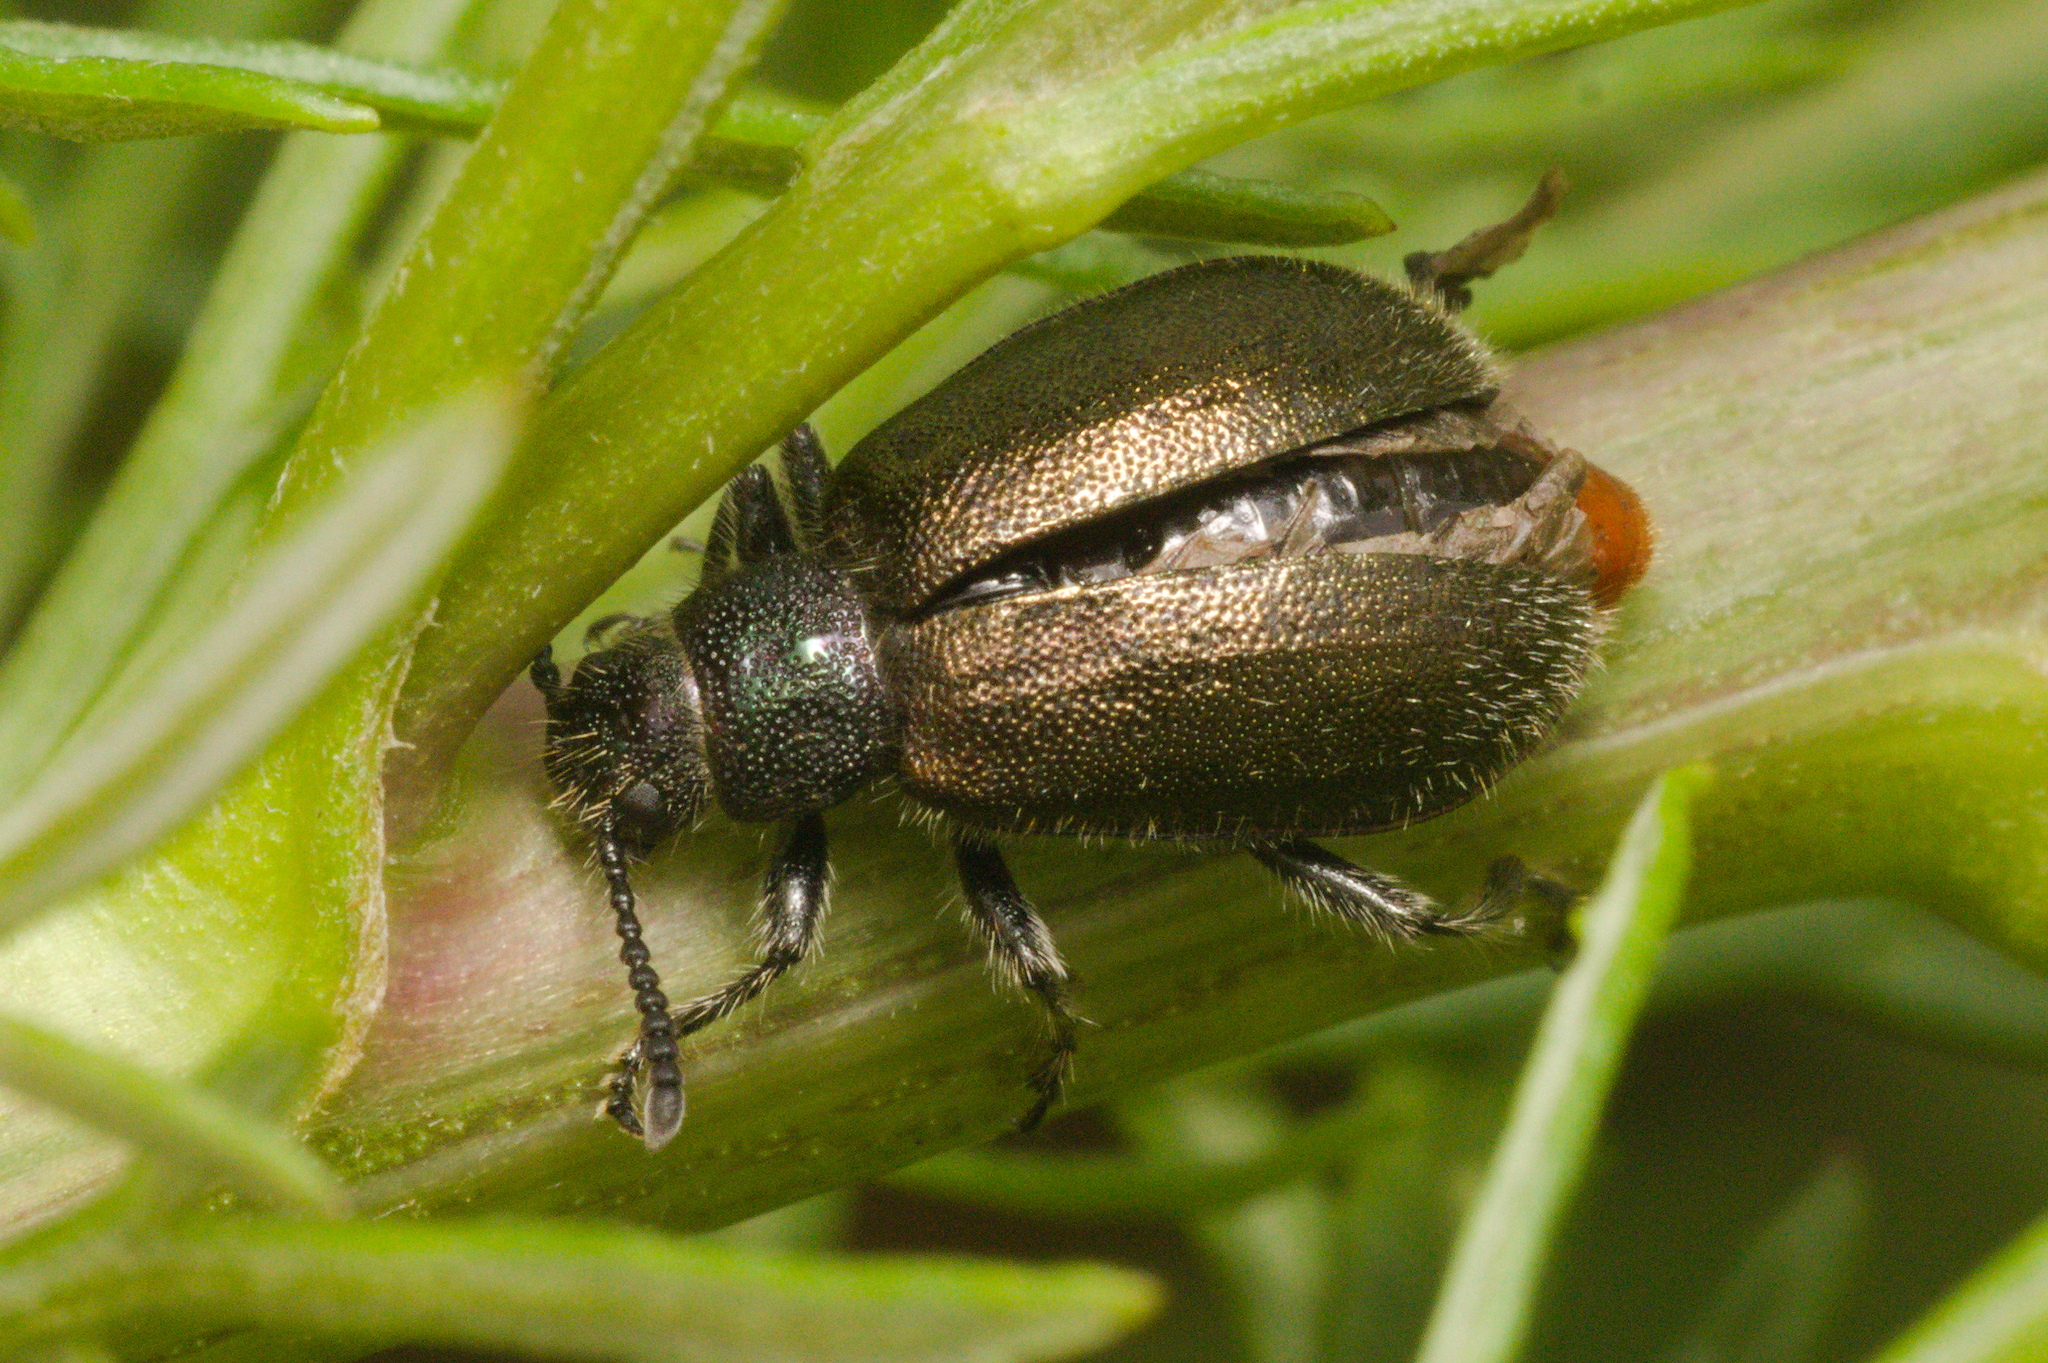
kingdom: Animalia
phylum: Arthropoda
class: Insecta
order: Coleoptera
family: Tenebrionidae
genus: Lagria
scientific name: Lagria villosa
